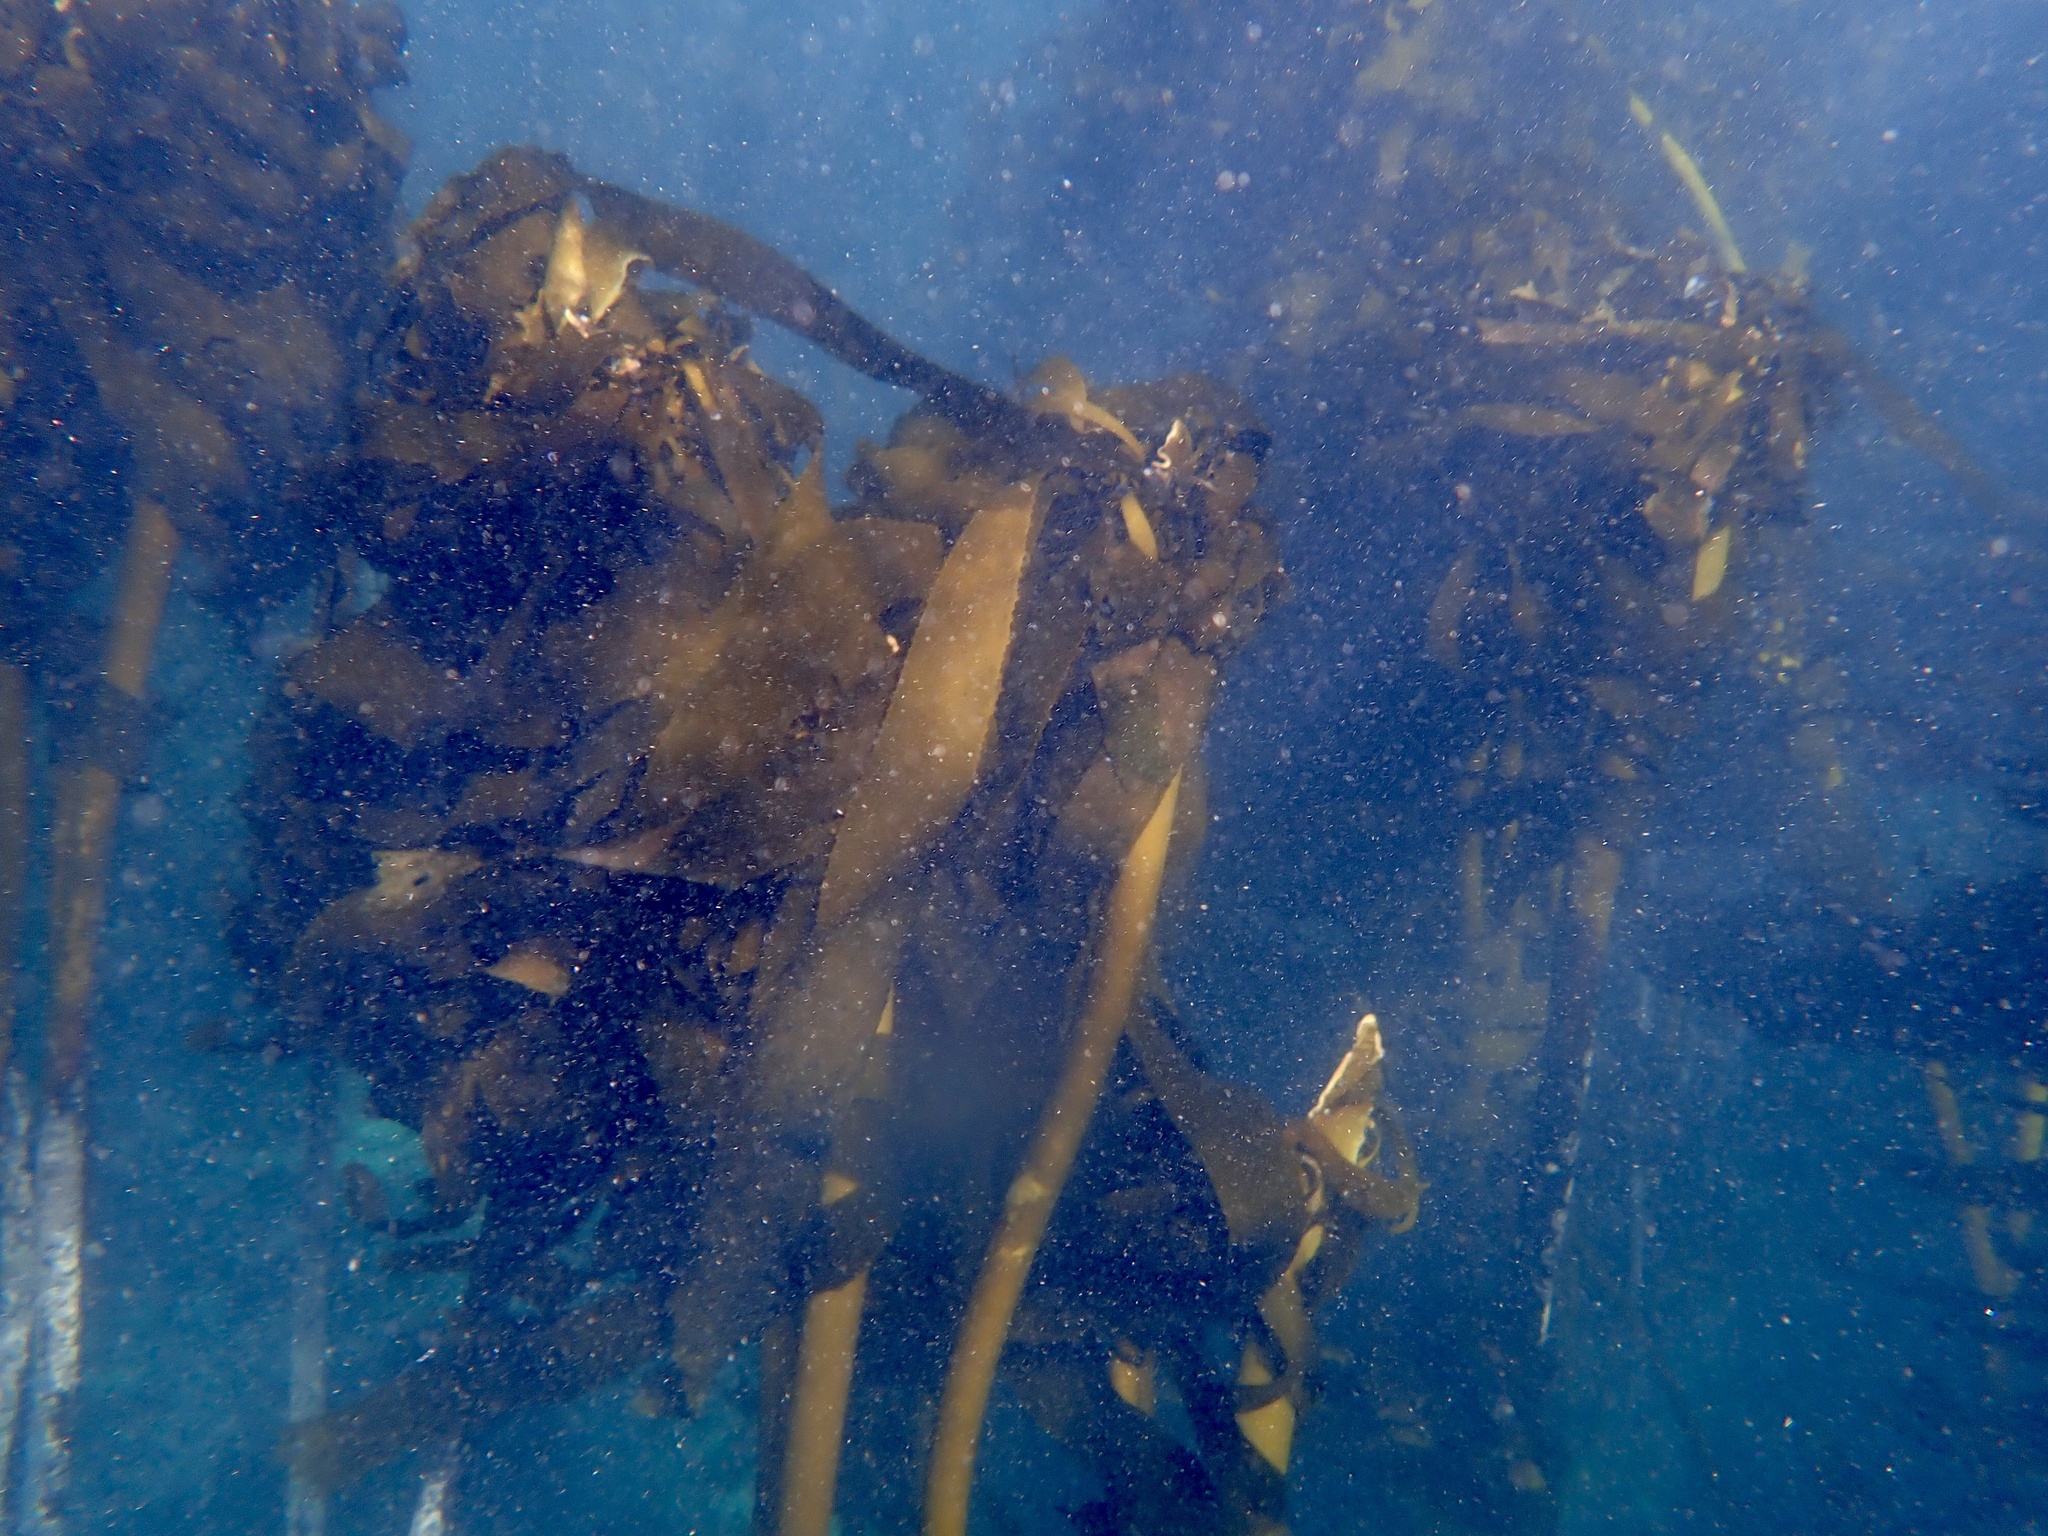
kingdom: Chromista
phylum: Ochrophyta
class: Phaeophyceae
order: Laminariales
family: Lessoniaceae
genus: Ecklonia
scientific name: Ecklonia
